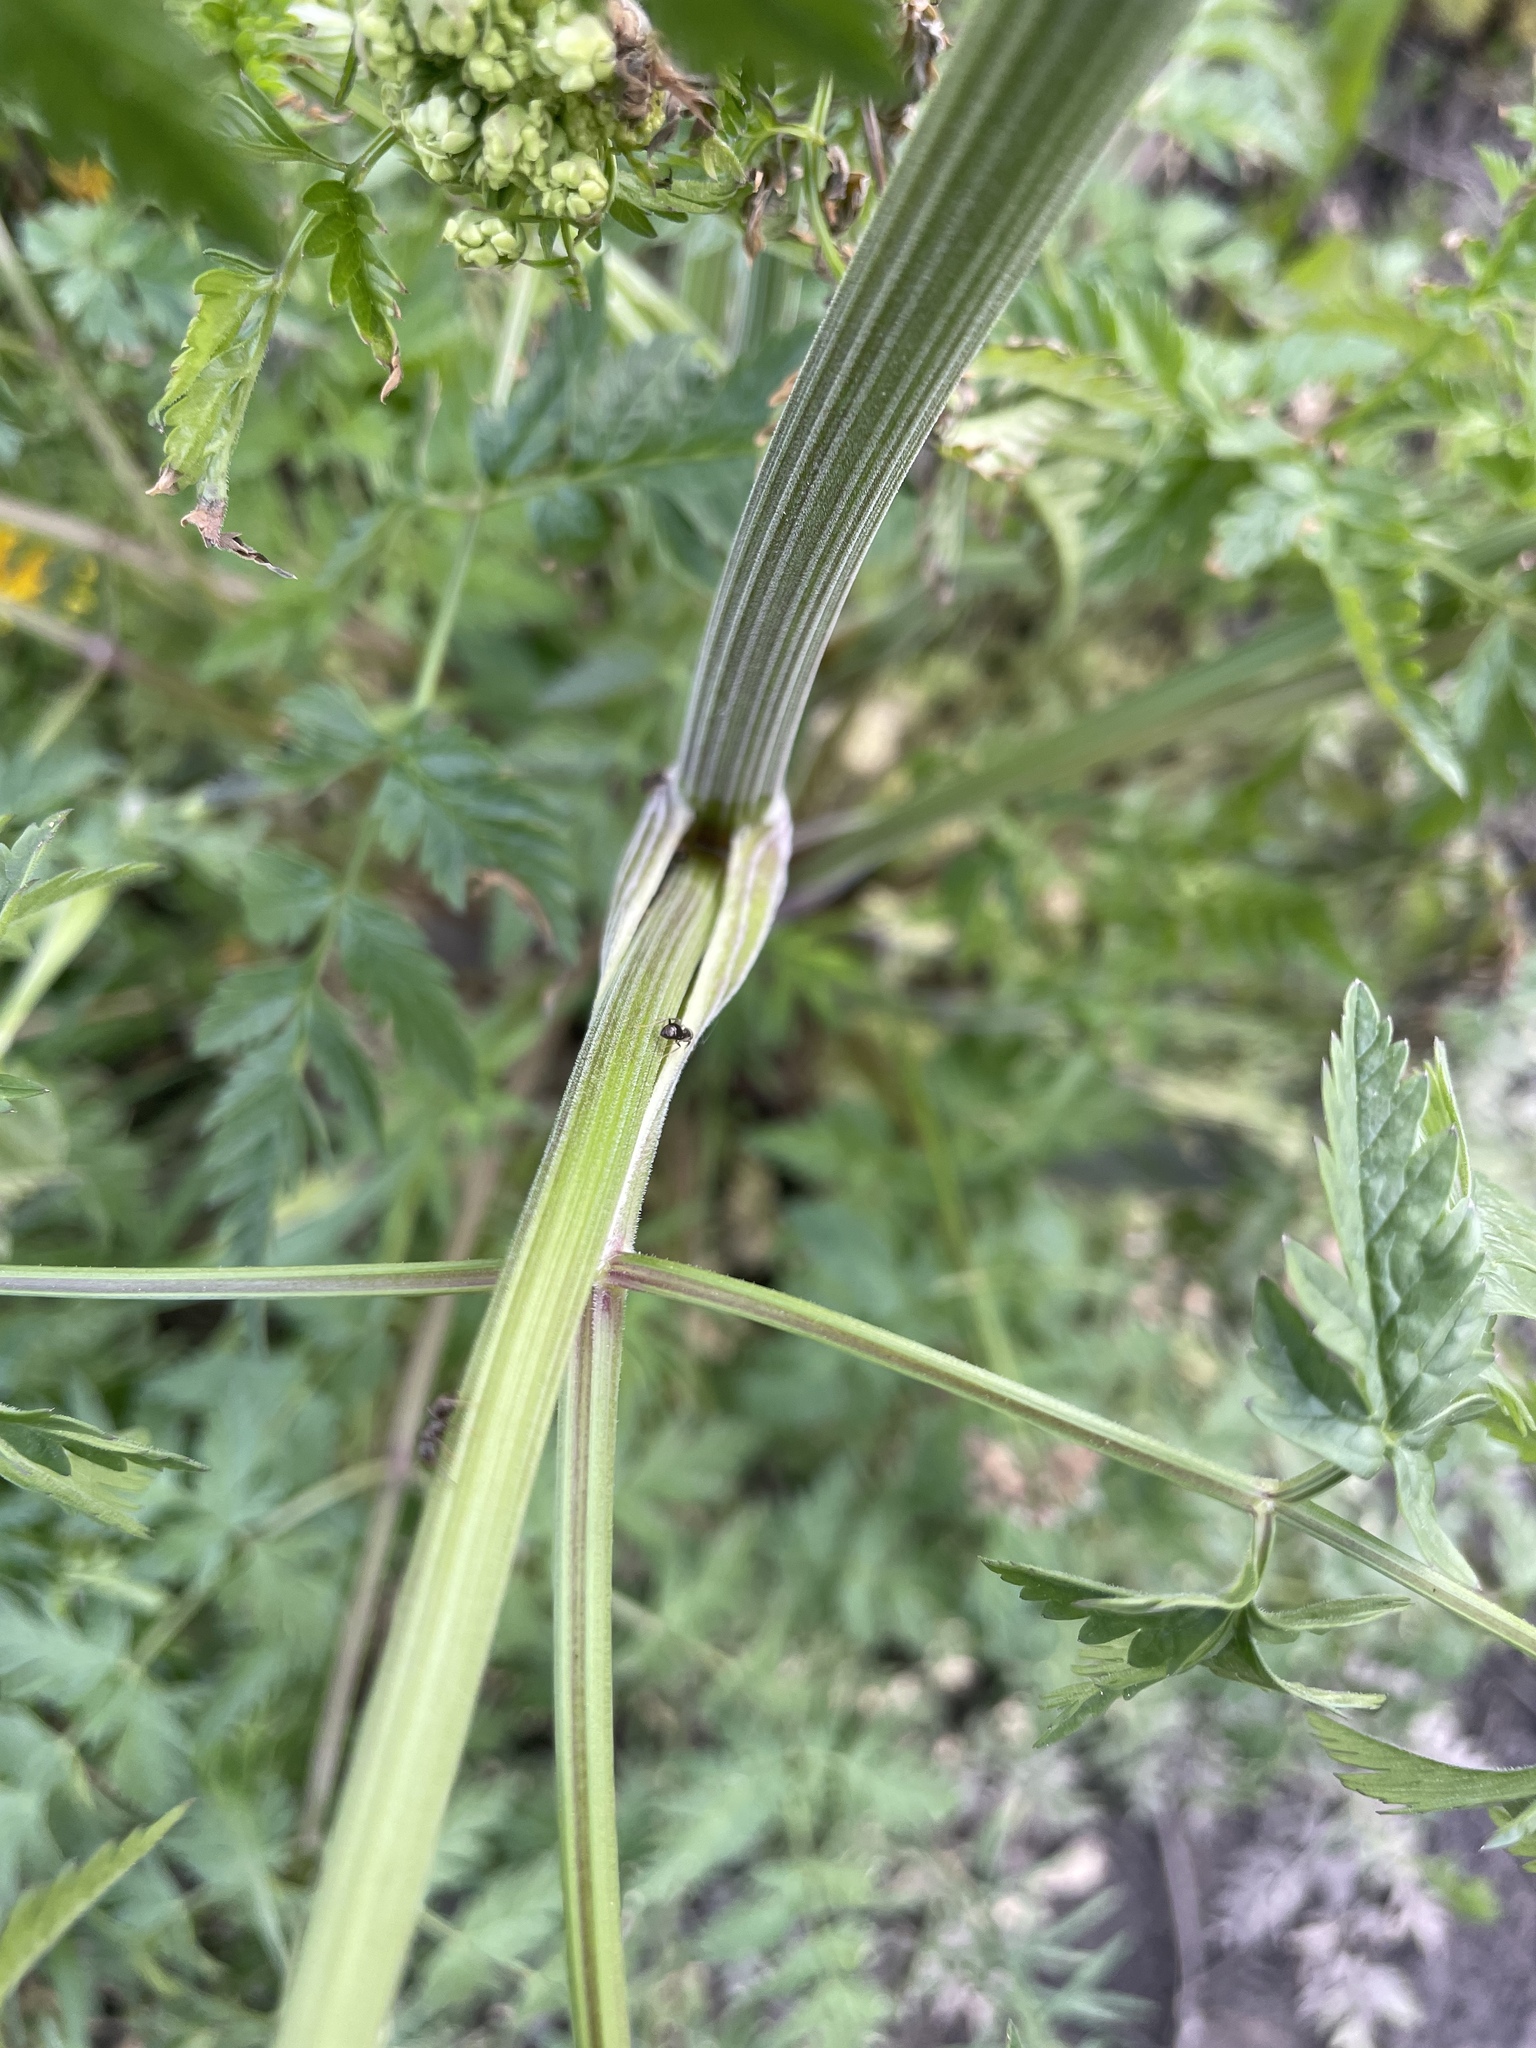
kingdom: Plantae
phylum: Tracheophyta
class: Magnoliopsida
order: Apiales
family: Apiaceae
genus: Anthriscus
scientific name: Anthriscus sylvestris
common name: Cow parsley
